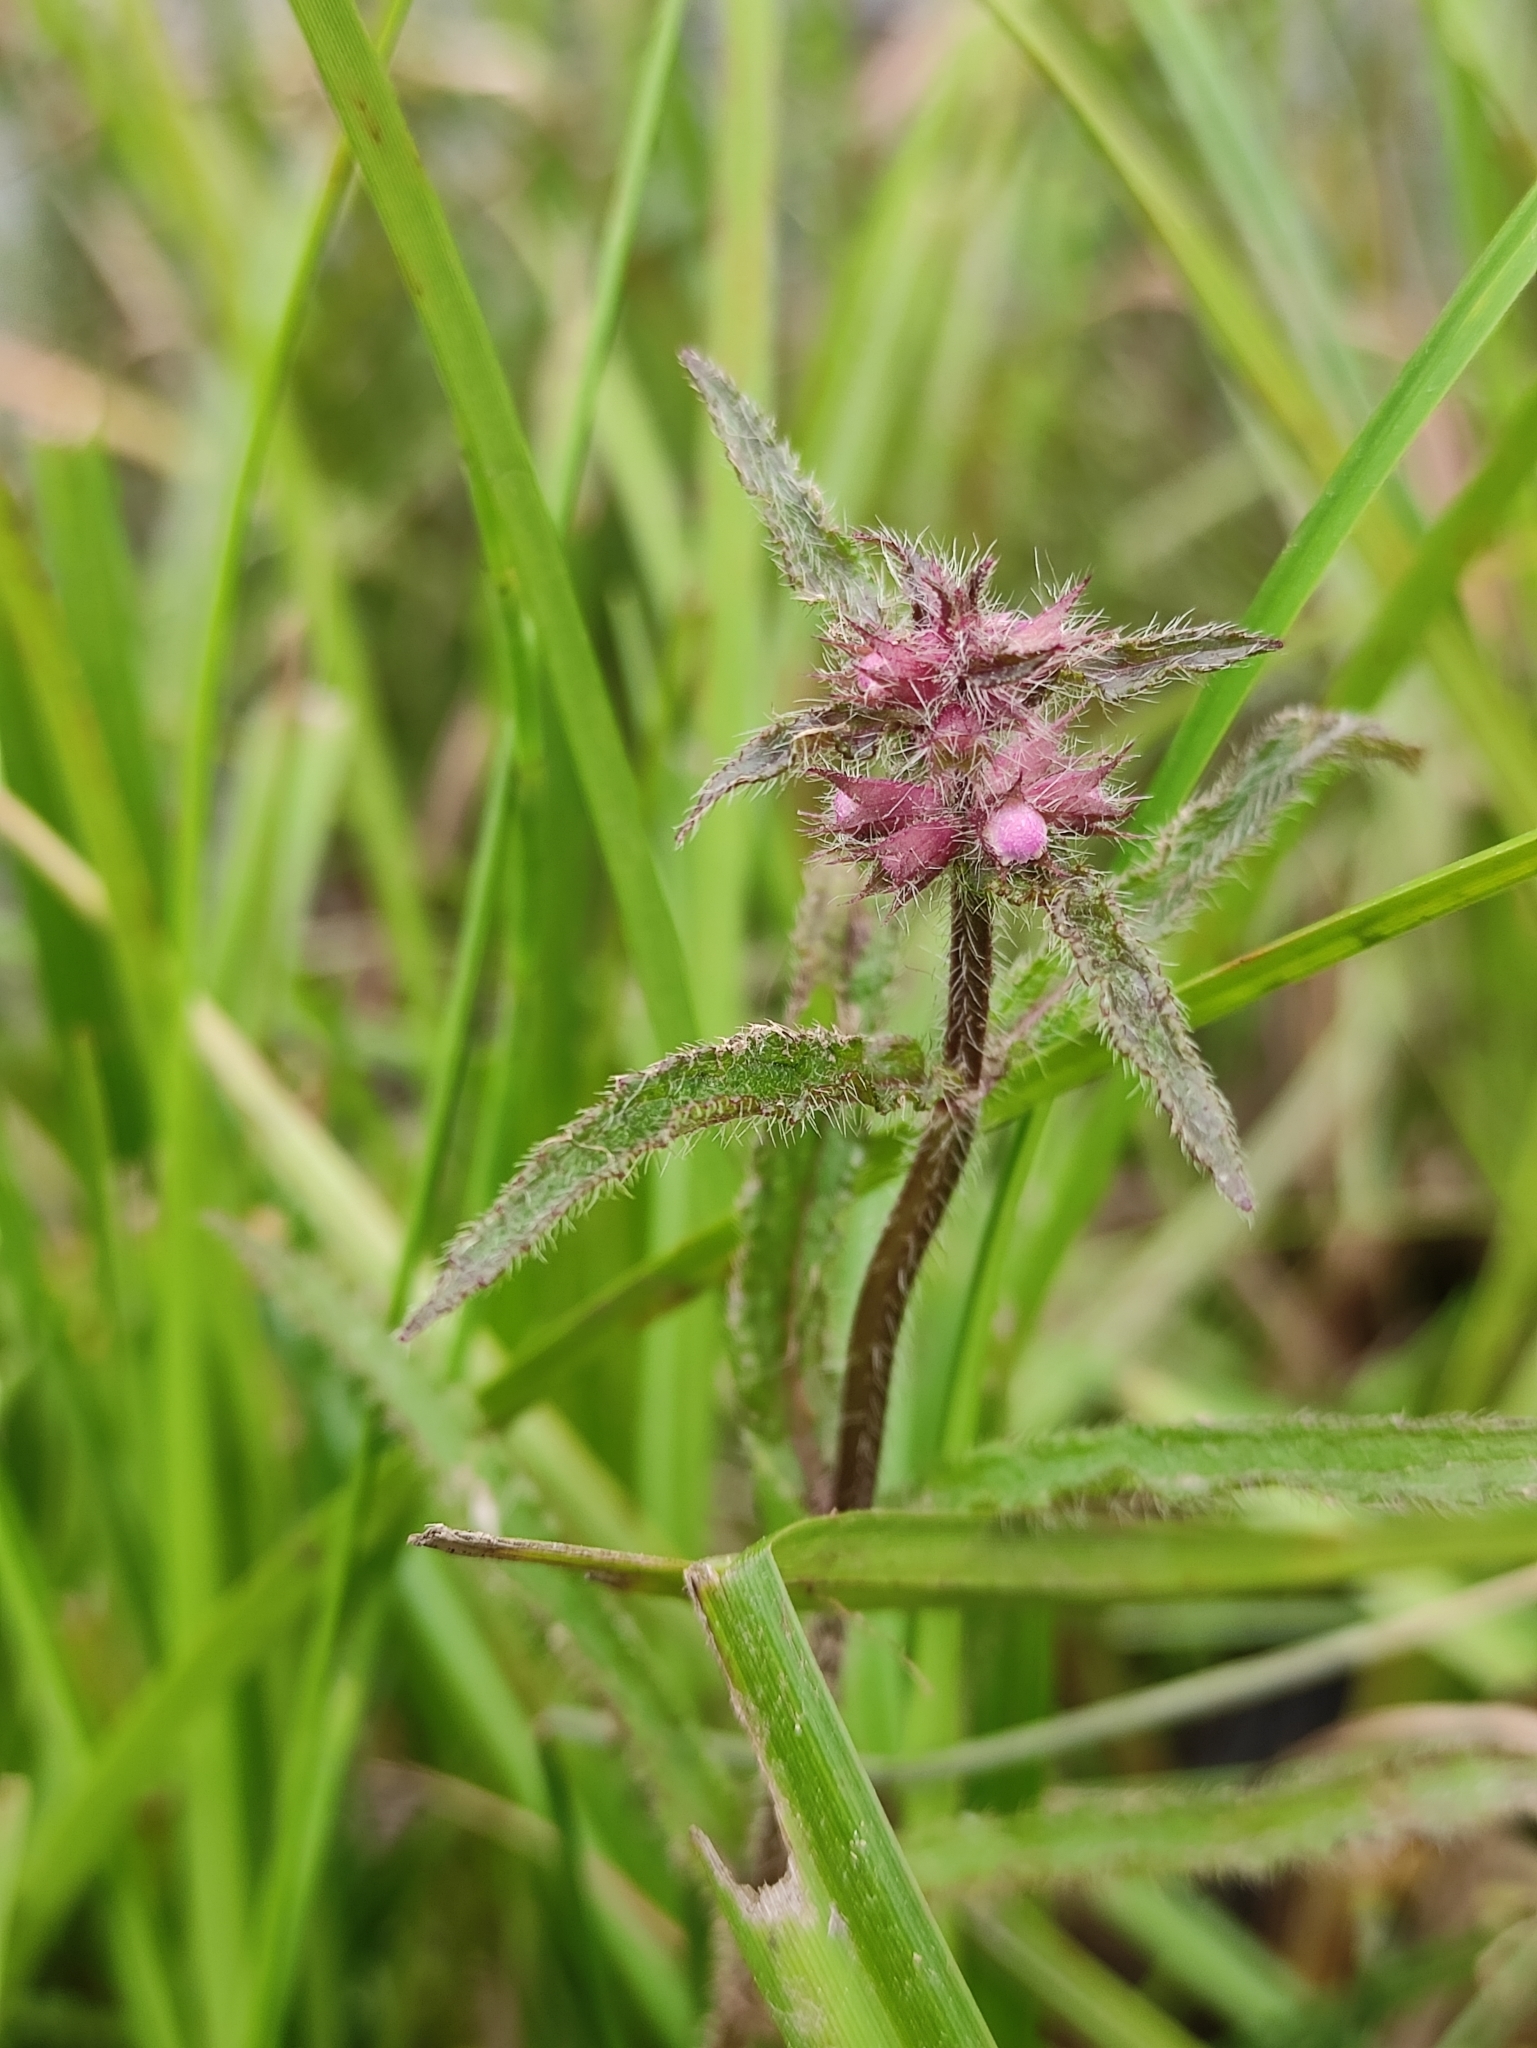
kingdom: Plantae
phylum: Tracheophyta
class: Magnoliopsida
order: Lamiales
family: Lamiaceae
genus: Stachys
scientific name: Stachys aspera
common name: Hyssopleaf hedgenettle
